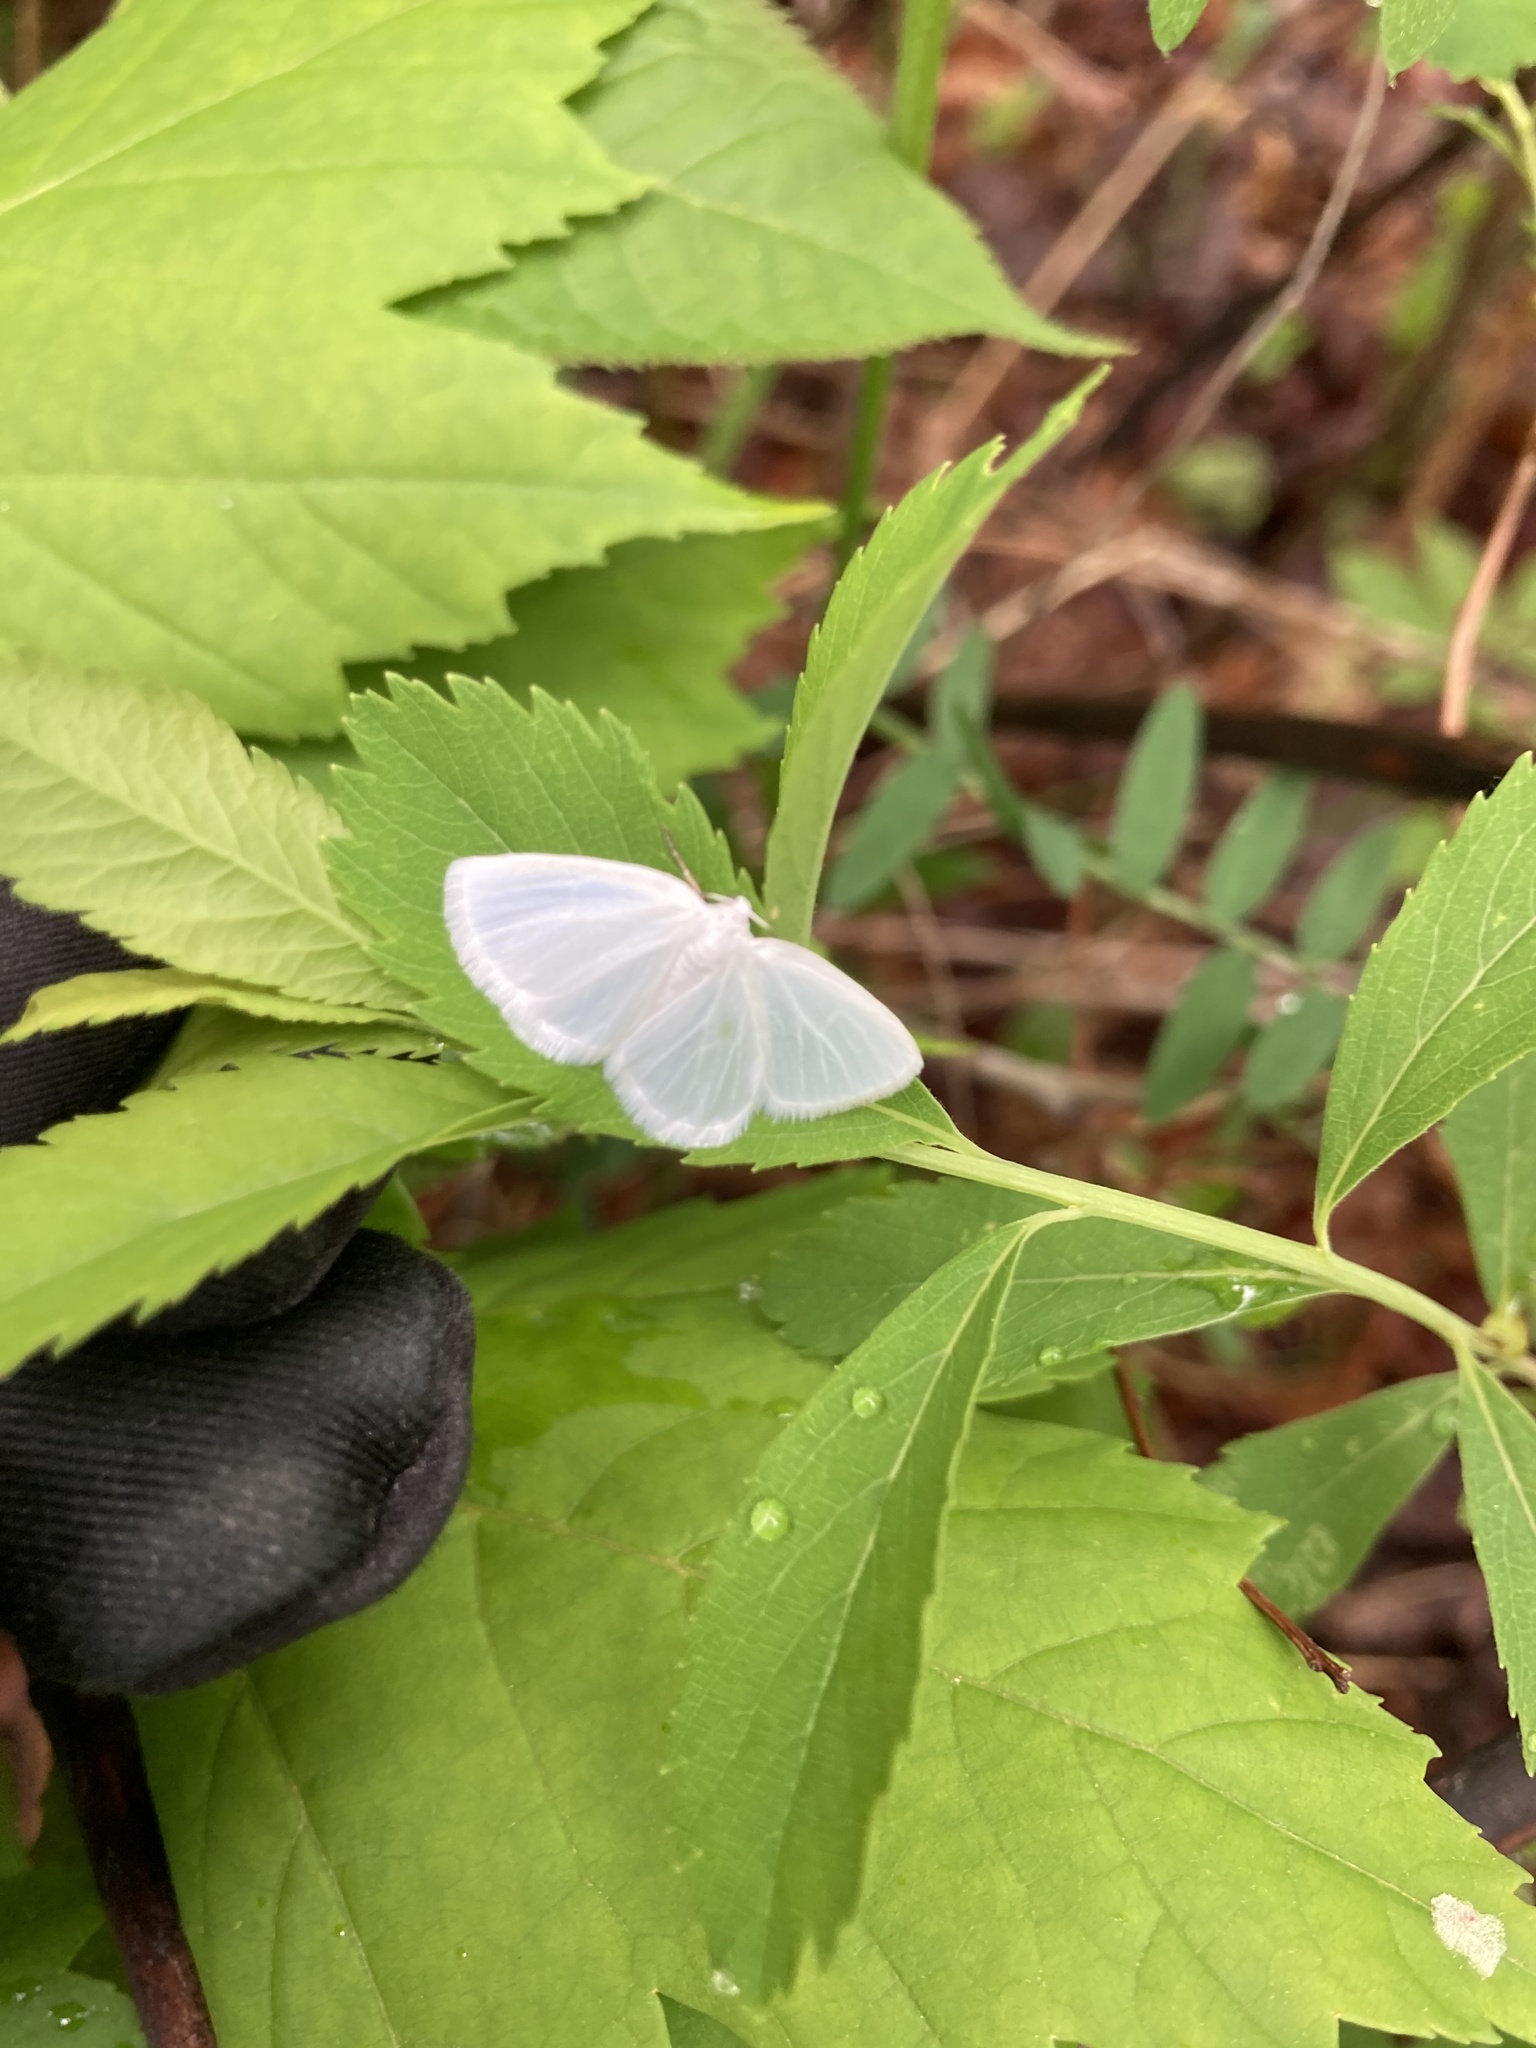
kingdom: Animalia
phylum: Arthropoda
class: Insecta
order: Lepidoptera
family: Geometridae
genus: Lomographa
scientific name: Lomographa vestaliata
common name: White spring moth
